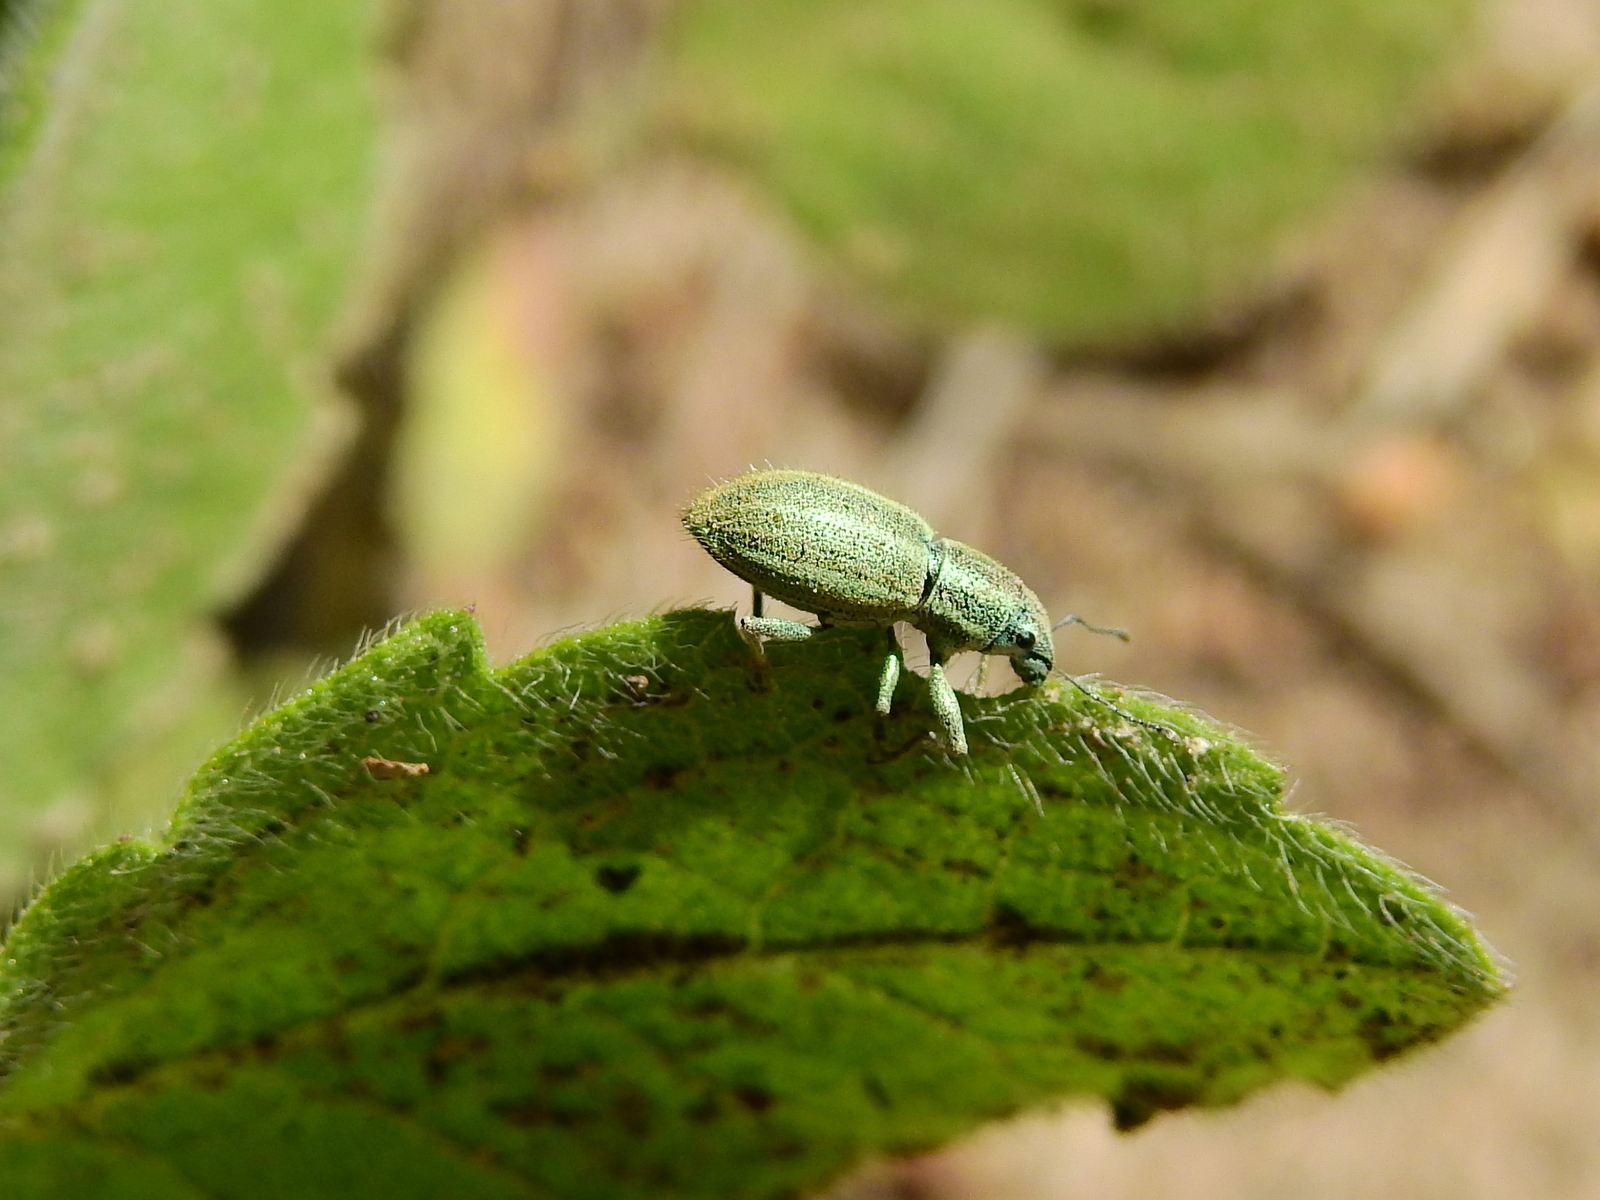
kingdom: Animalia
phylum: Arthropoda
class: Insecta
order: Coleoptera
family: Curculionidae
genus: Naupactus
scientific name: Naupactus auripes
